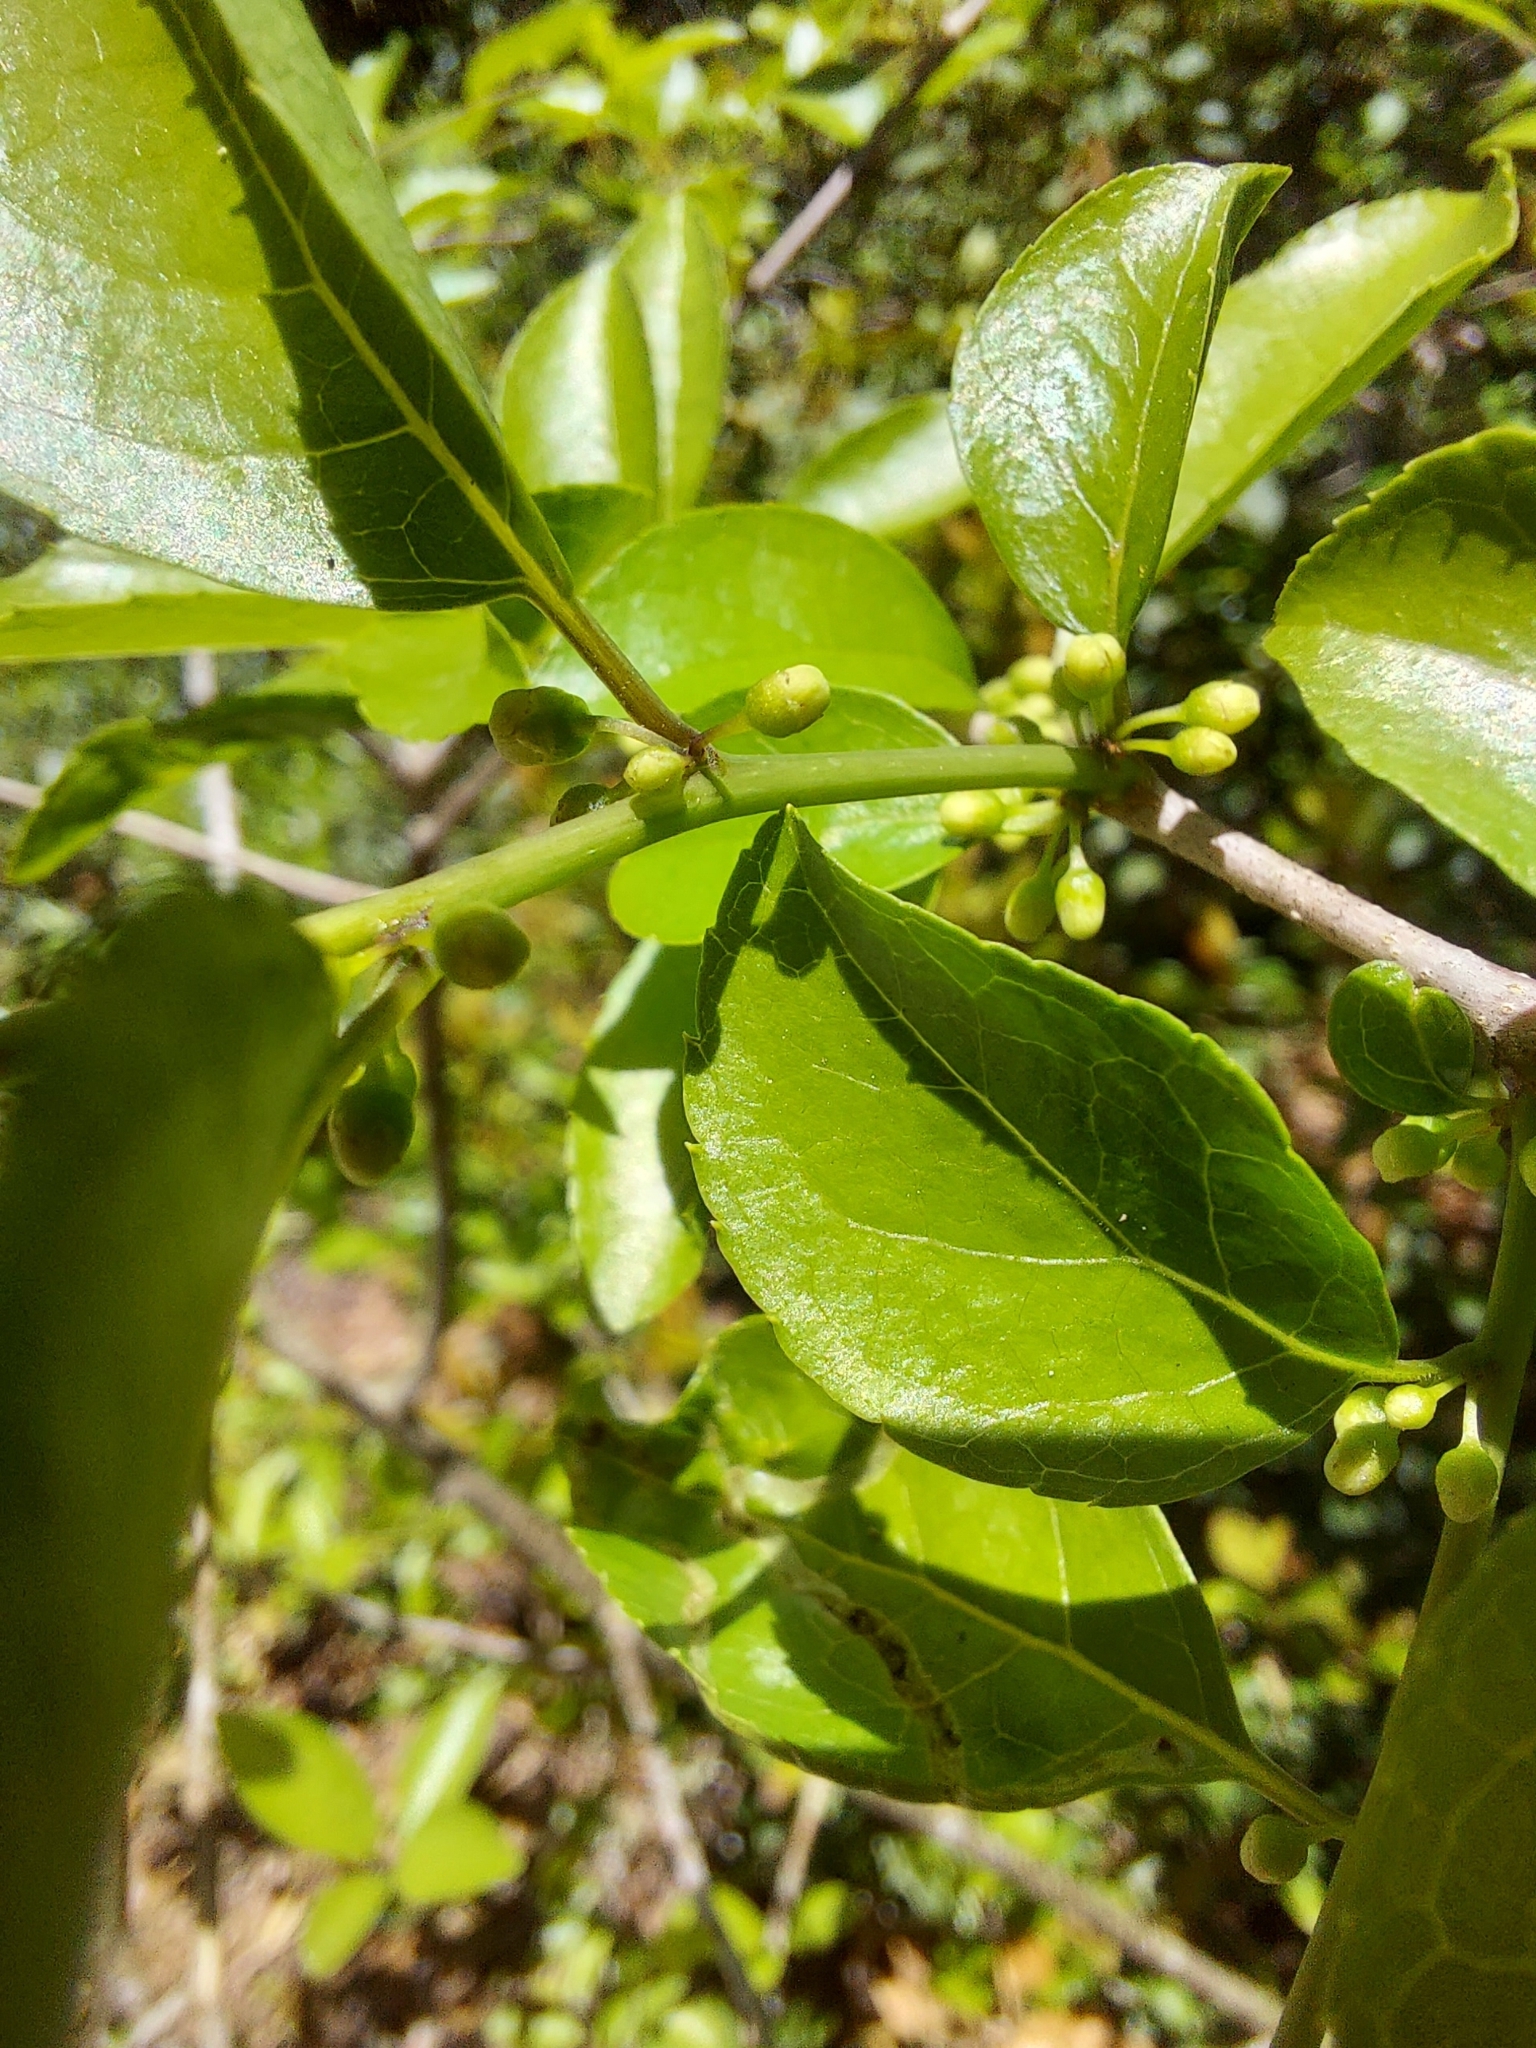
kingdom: Plantae
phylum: Tracheophyta
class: Magnoliopsida
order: Aquifoliales
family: Aquifoliaceae
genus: Ilex
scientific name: Ilex ambigua
